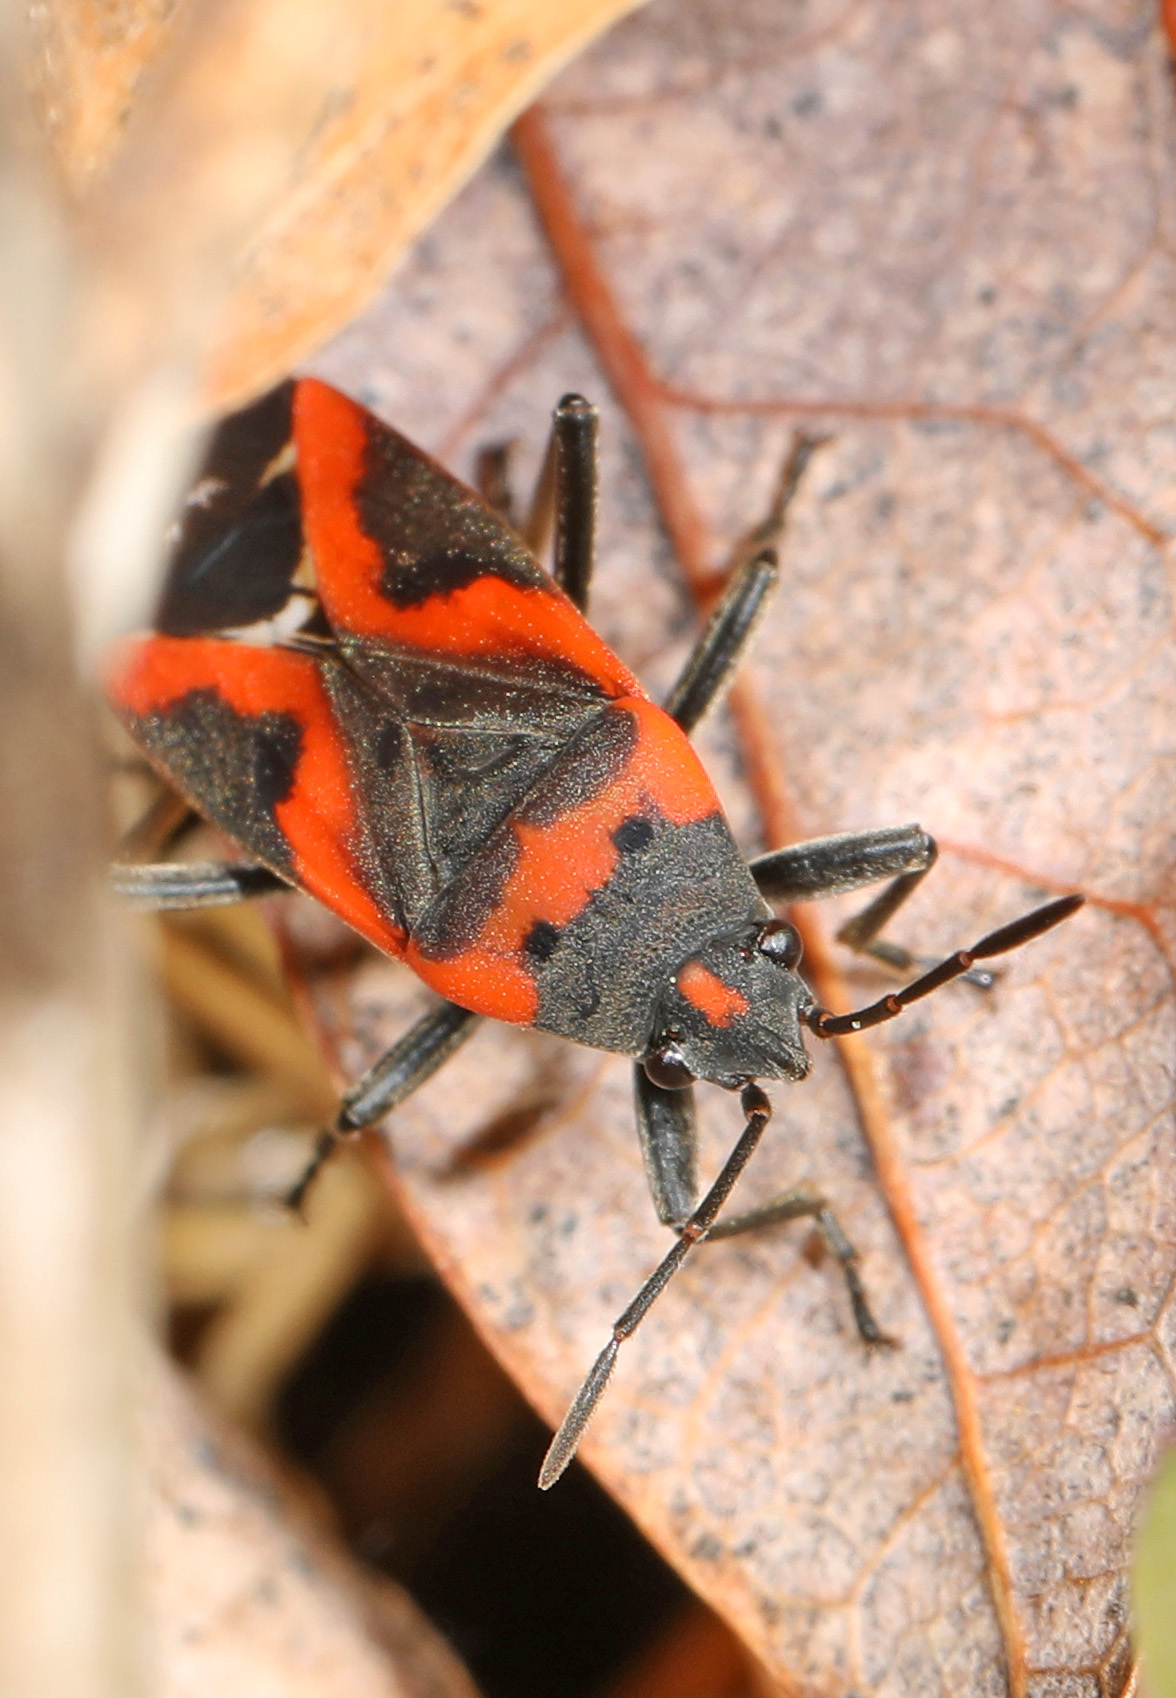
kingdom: Animalia
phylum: Arthropoda
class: Insecta
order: Hemiptera
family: Lygaeidae
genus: Lygaeus
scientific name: Lygaeus kalmii
